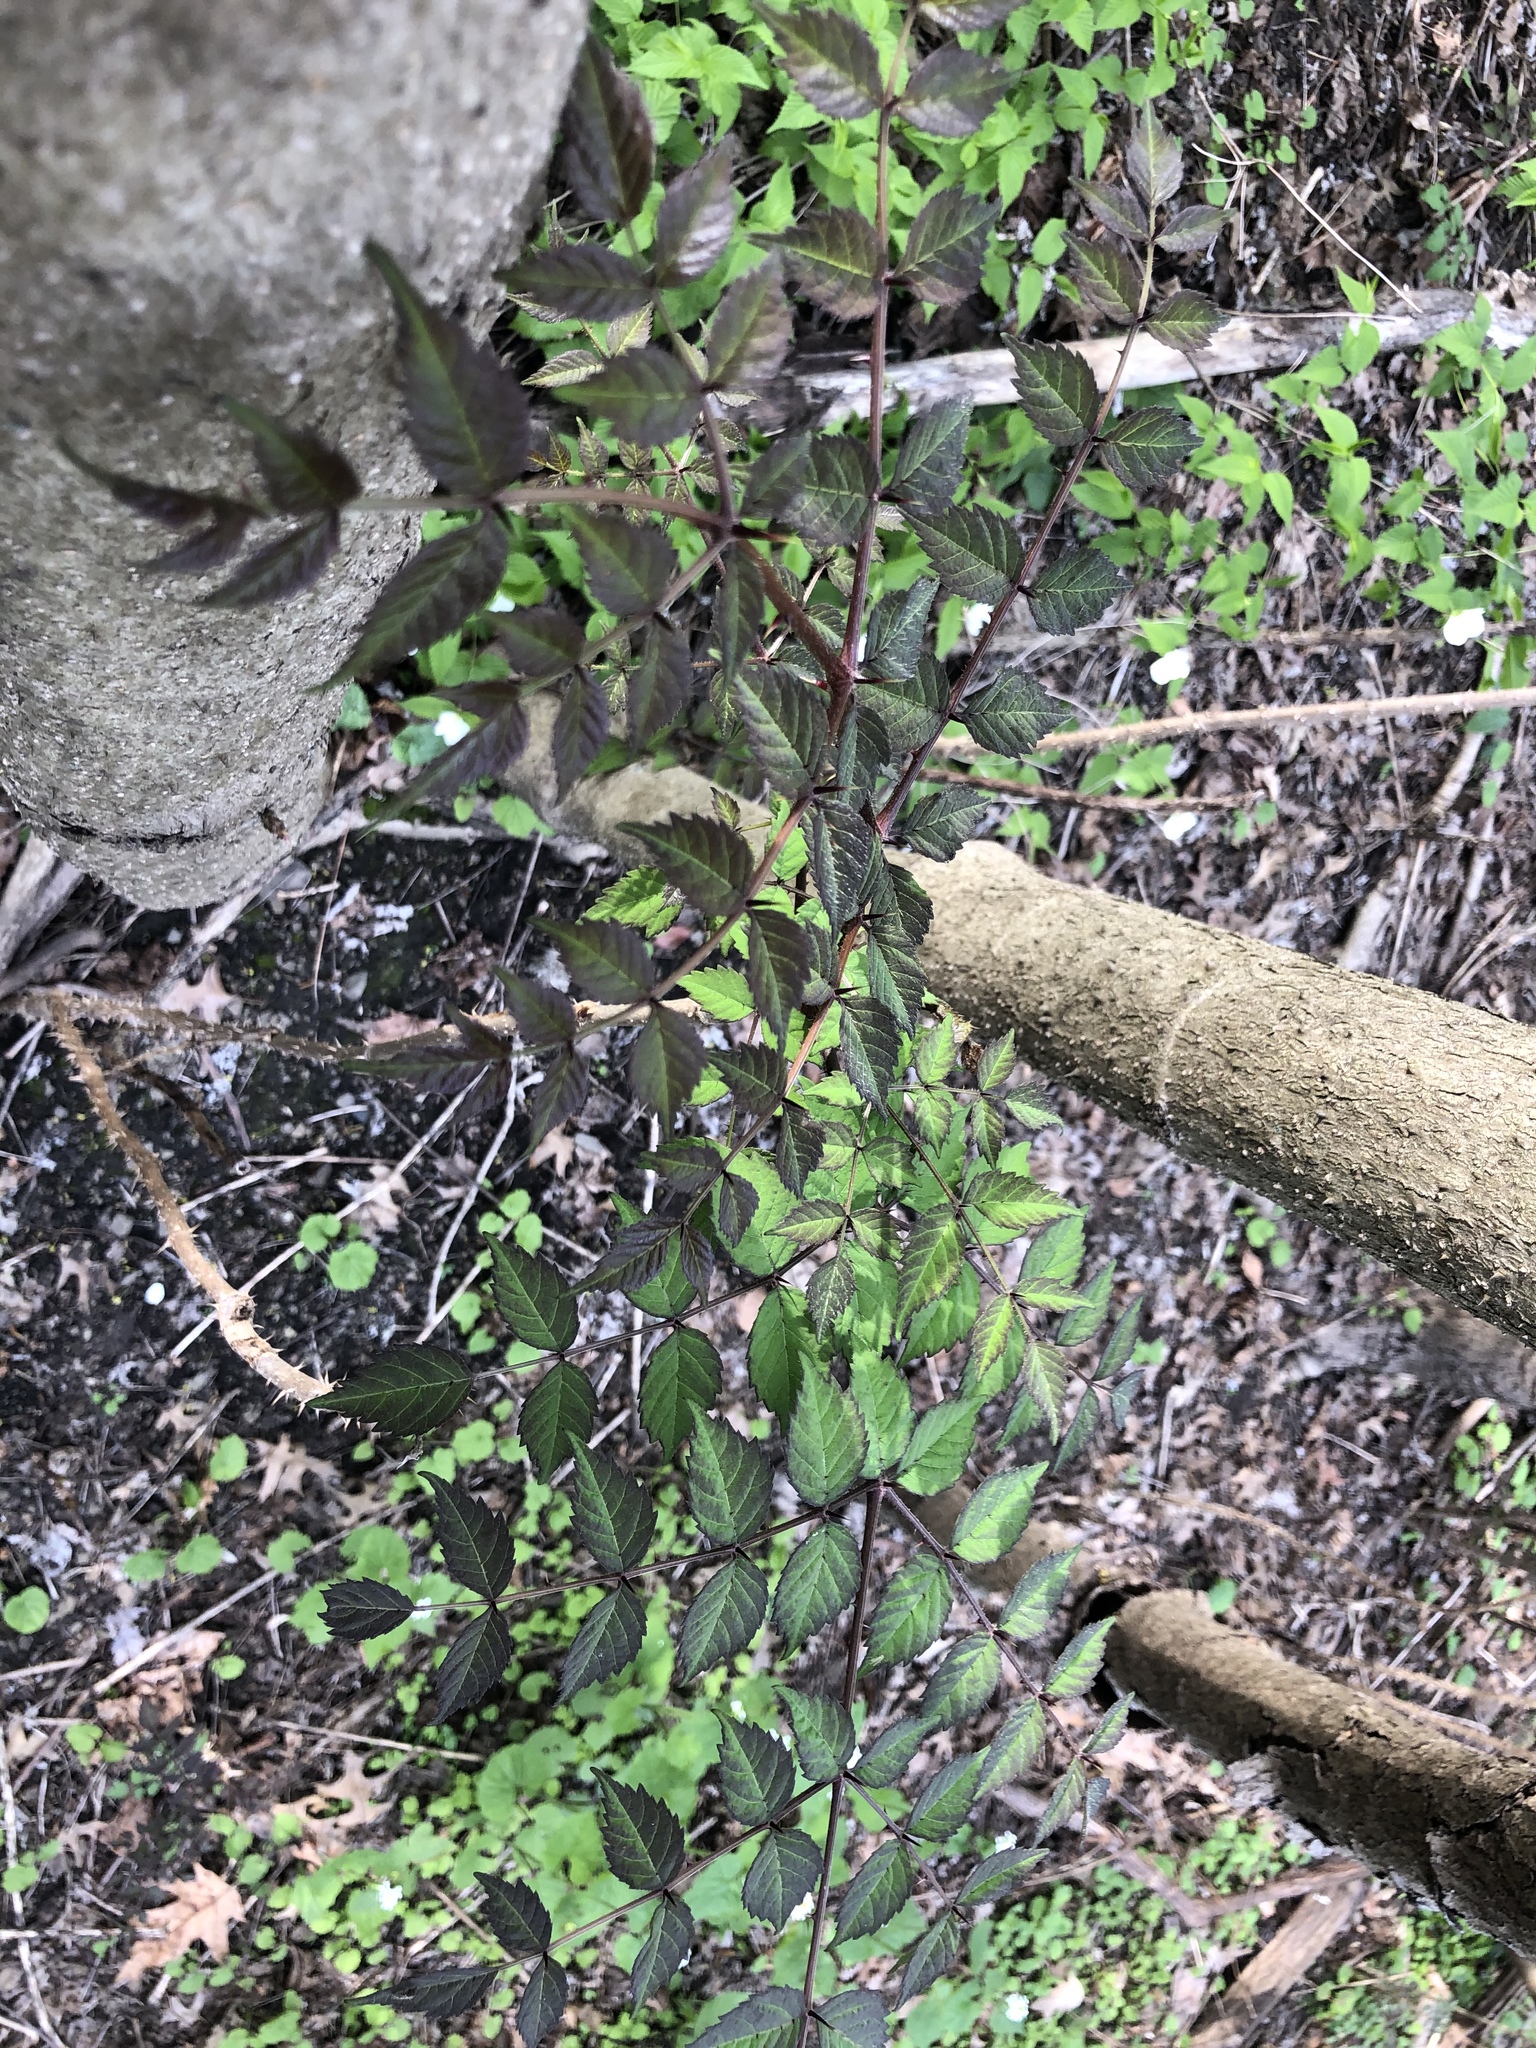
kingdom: Plantae
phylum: Tracheophyta
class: Magnoliopsida
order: Apiales
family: Araliaceae
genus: Aralia
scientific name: Aralia elata
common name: Japanese angelica-tree
